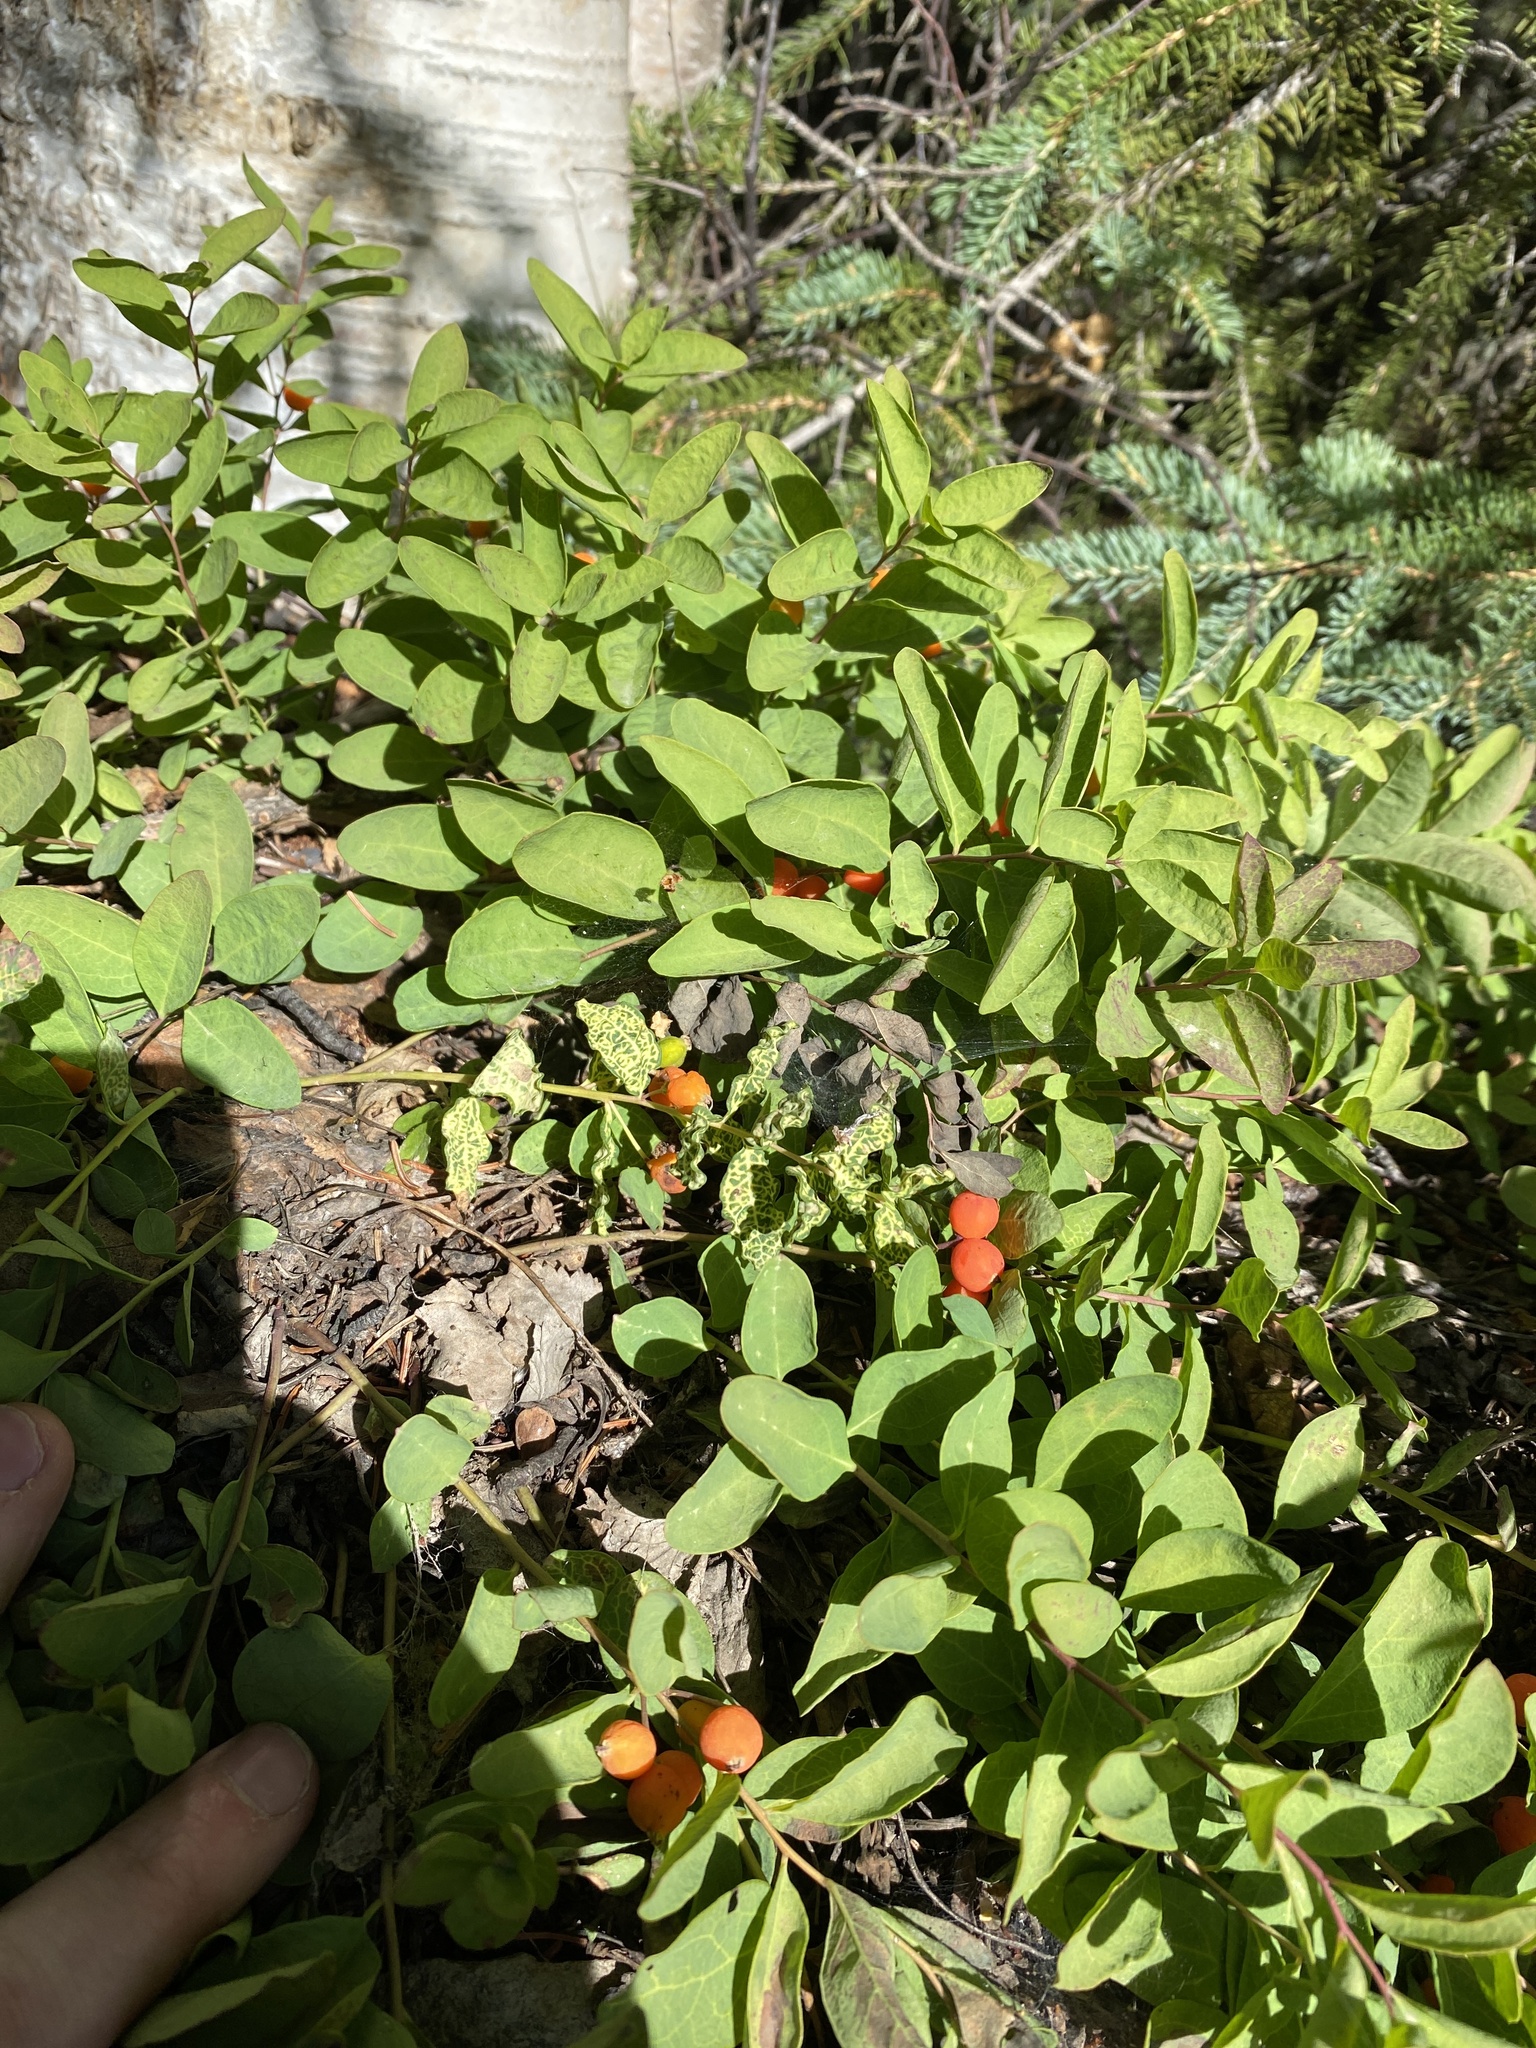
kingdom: Plantae
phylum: Tracheophyta
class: Magnoliopsida
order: Santalales
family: Comandraceae
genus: Geocaulon
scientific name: Geocaulon lividum
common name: Earthberry
